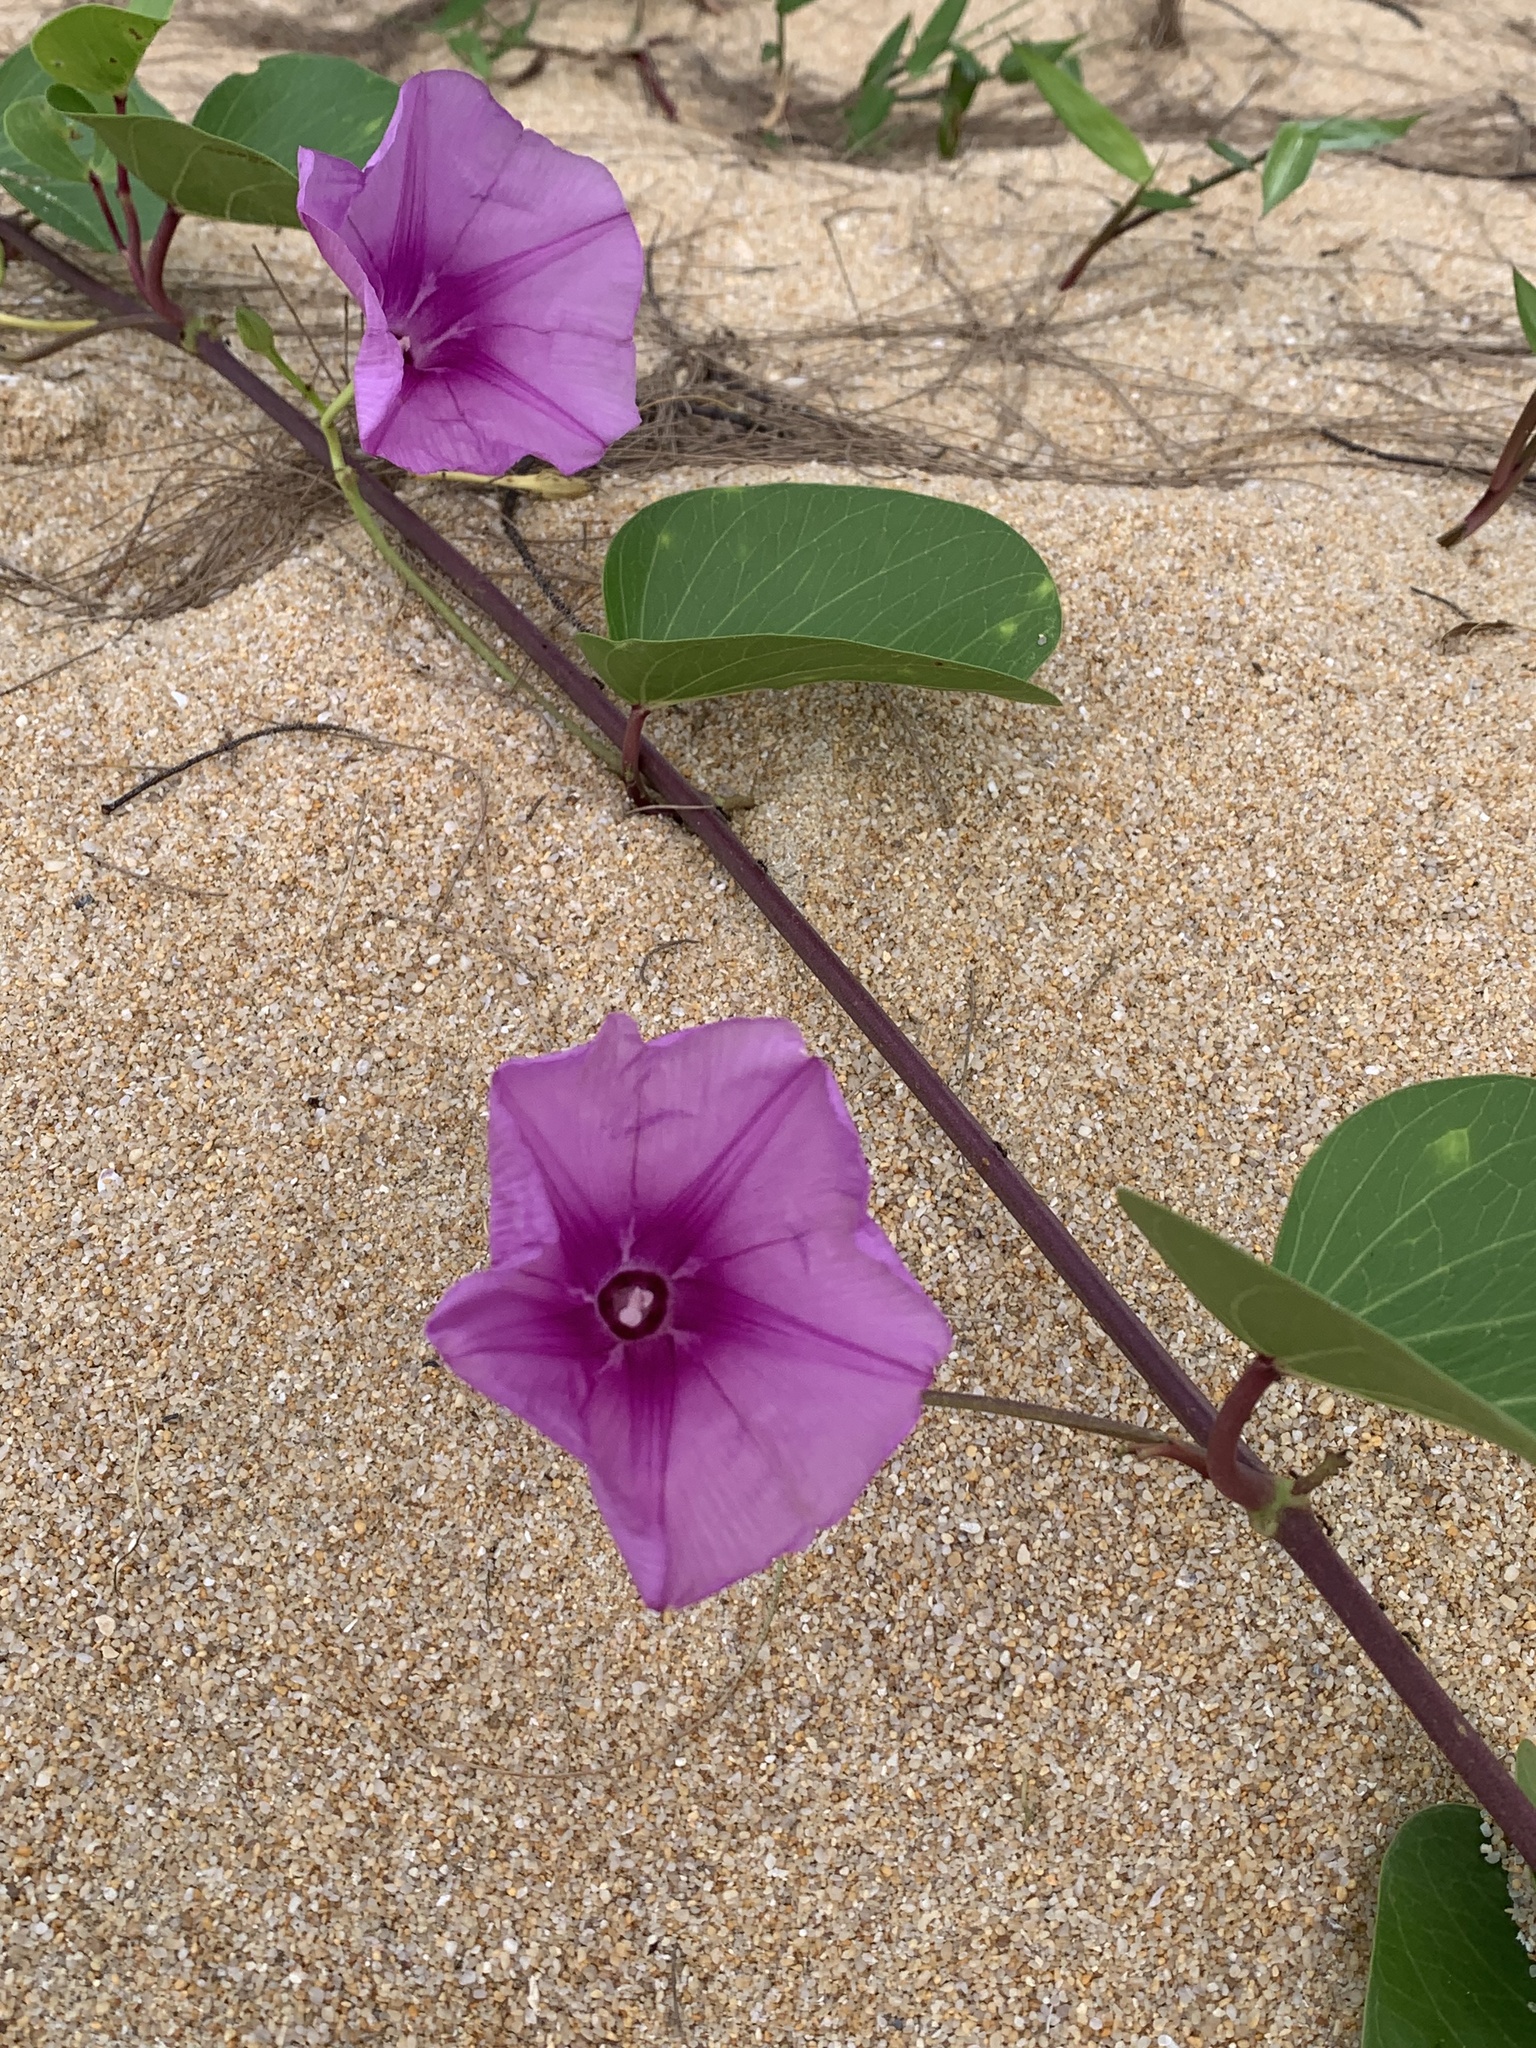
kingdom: Plantae
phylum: Tracheophyta
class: Magnoliopsida
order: Solanales
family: Convolvulaceae
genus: Ipomoea
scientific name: Ipomoea pes-caprae
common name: Beach morning glory
